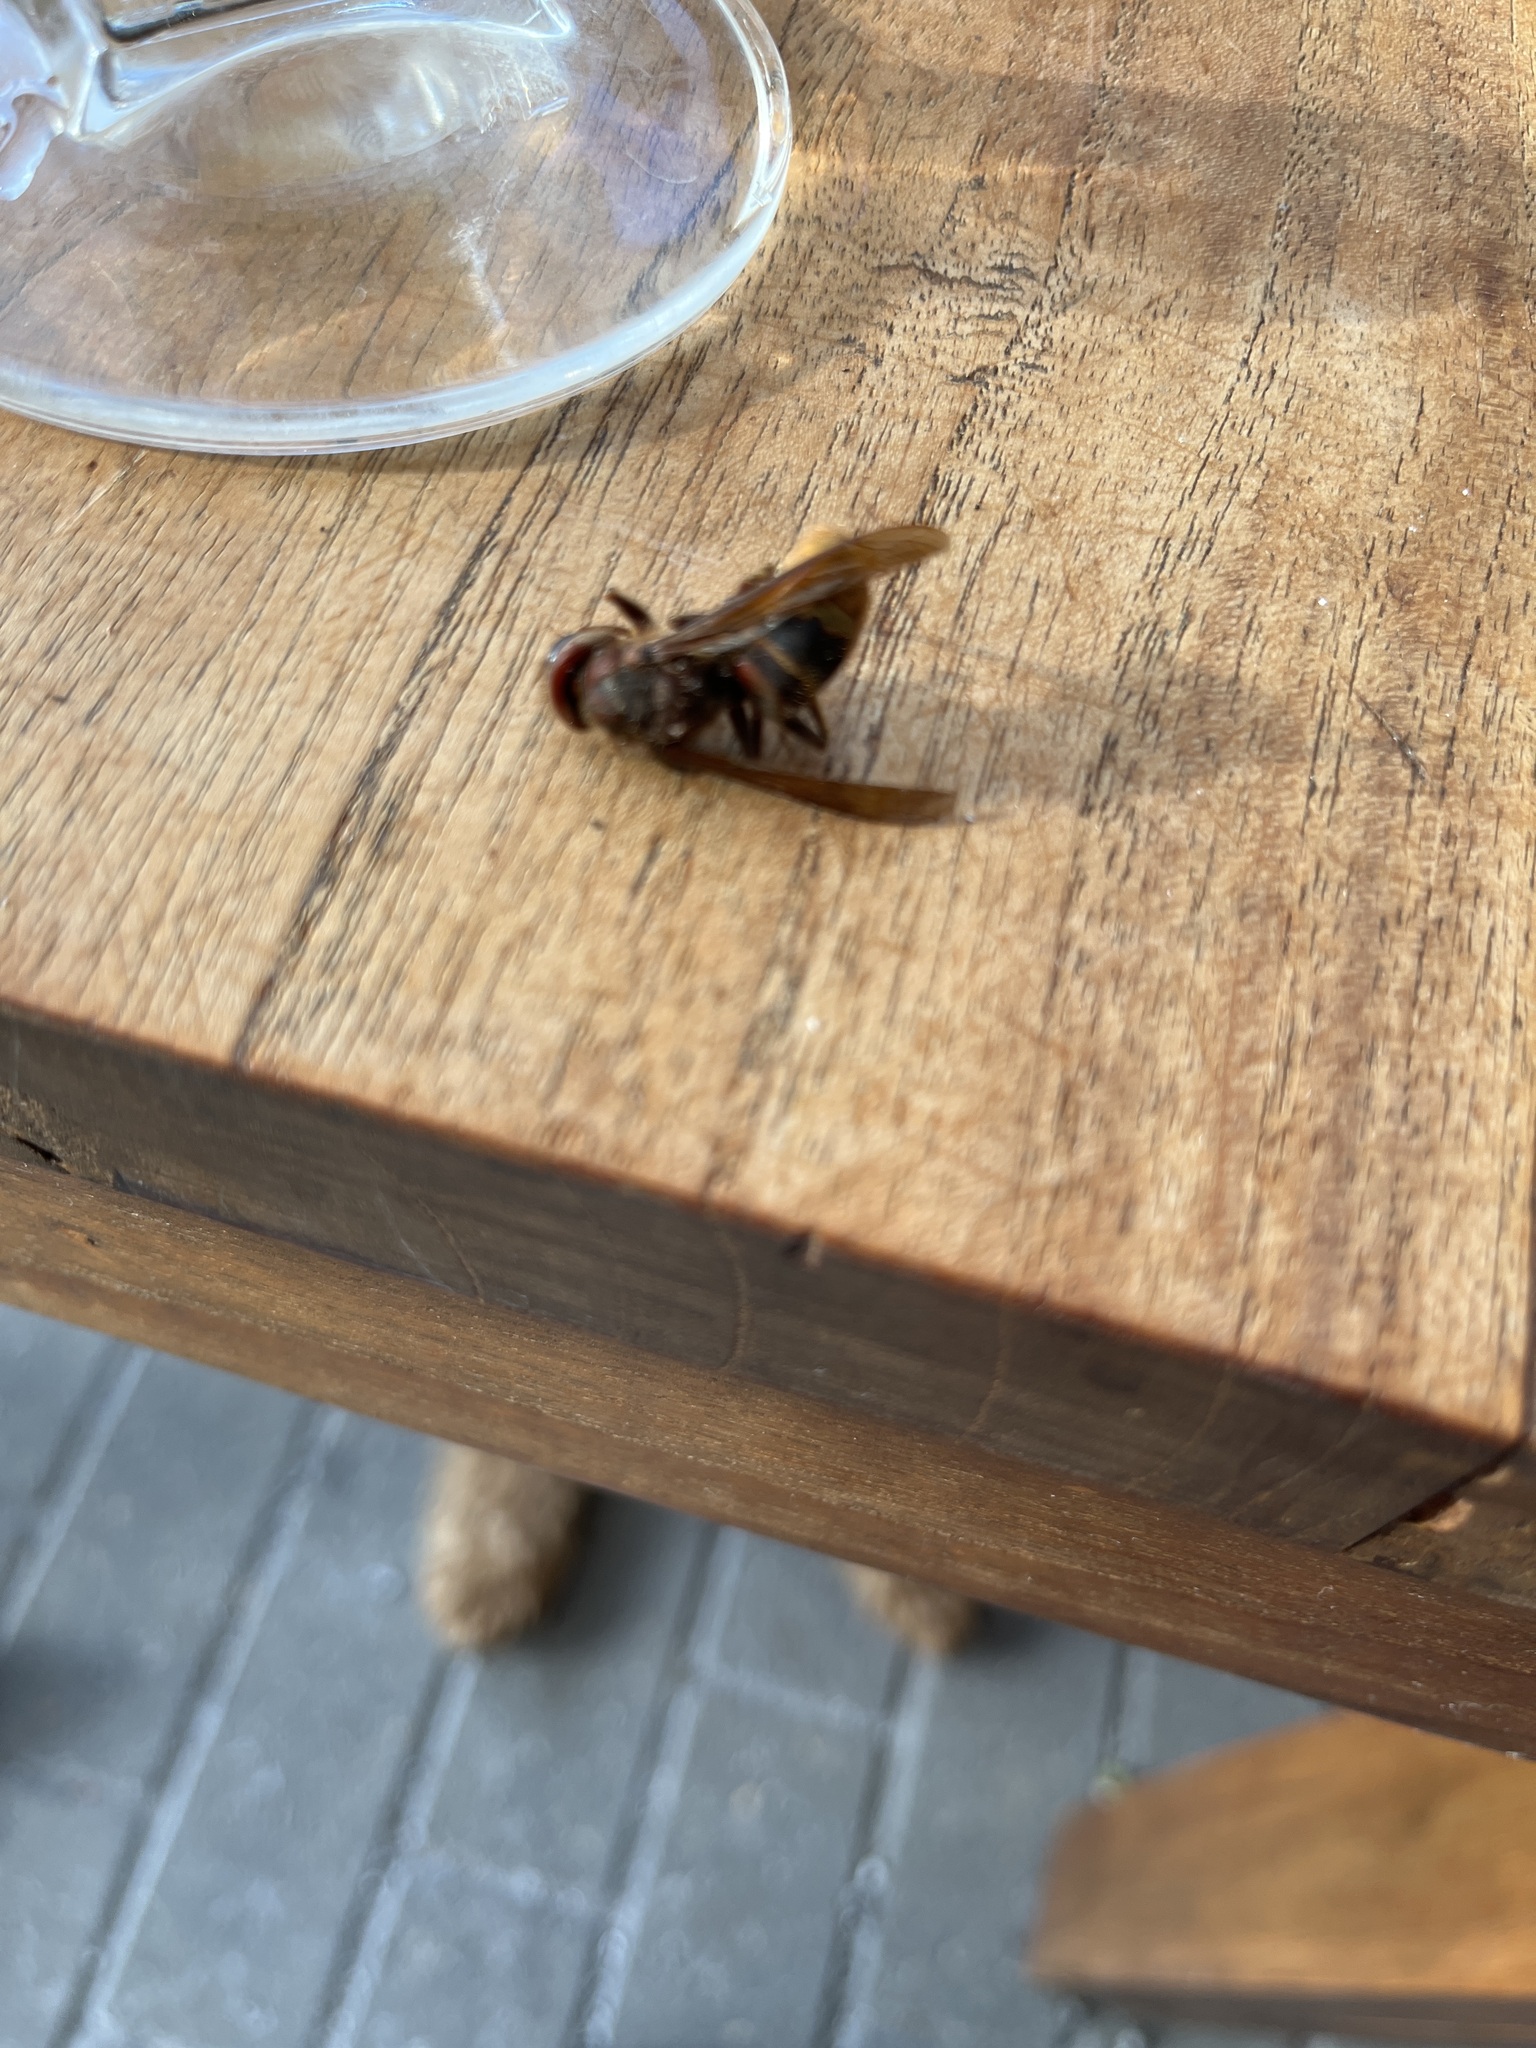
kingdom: Animalia
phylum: Arthropoda
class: Insecta
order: Hymenoptera
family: Vespidae
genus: Vespa
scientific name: Vespa crabro
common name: Hornet
